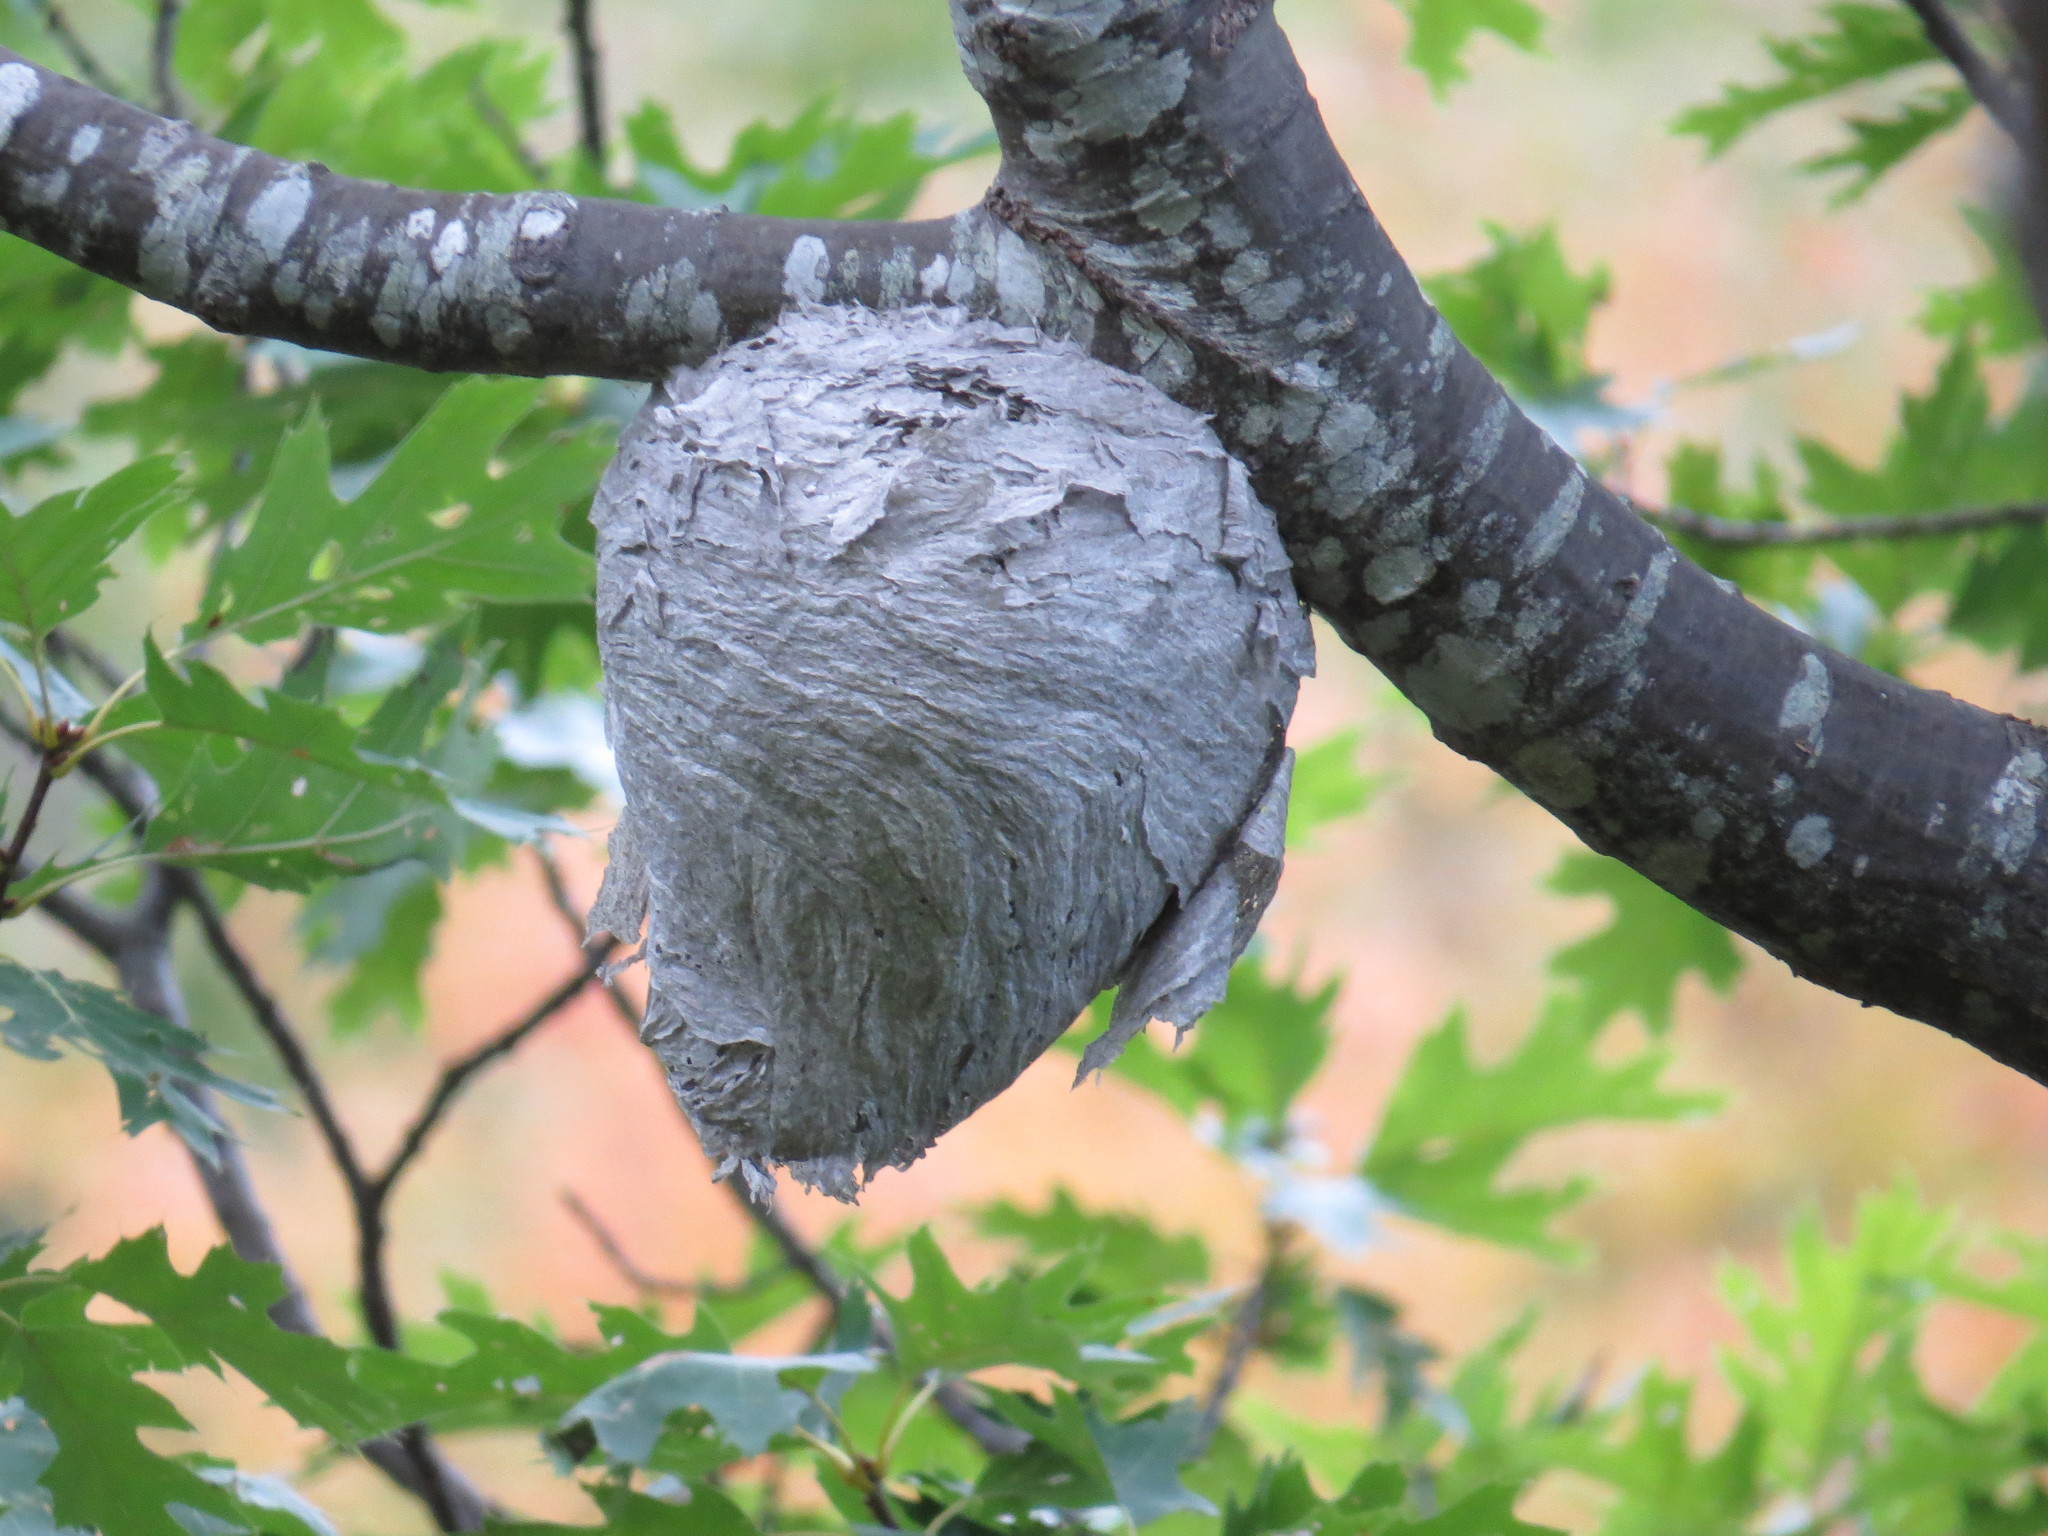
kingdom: Animalia
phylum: Arthropoda
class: Insecta
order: Hymenoptera
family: Vespidae
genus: Dolichovespula
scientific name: Dolichovespula maculata
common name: Bald-faced hornet
